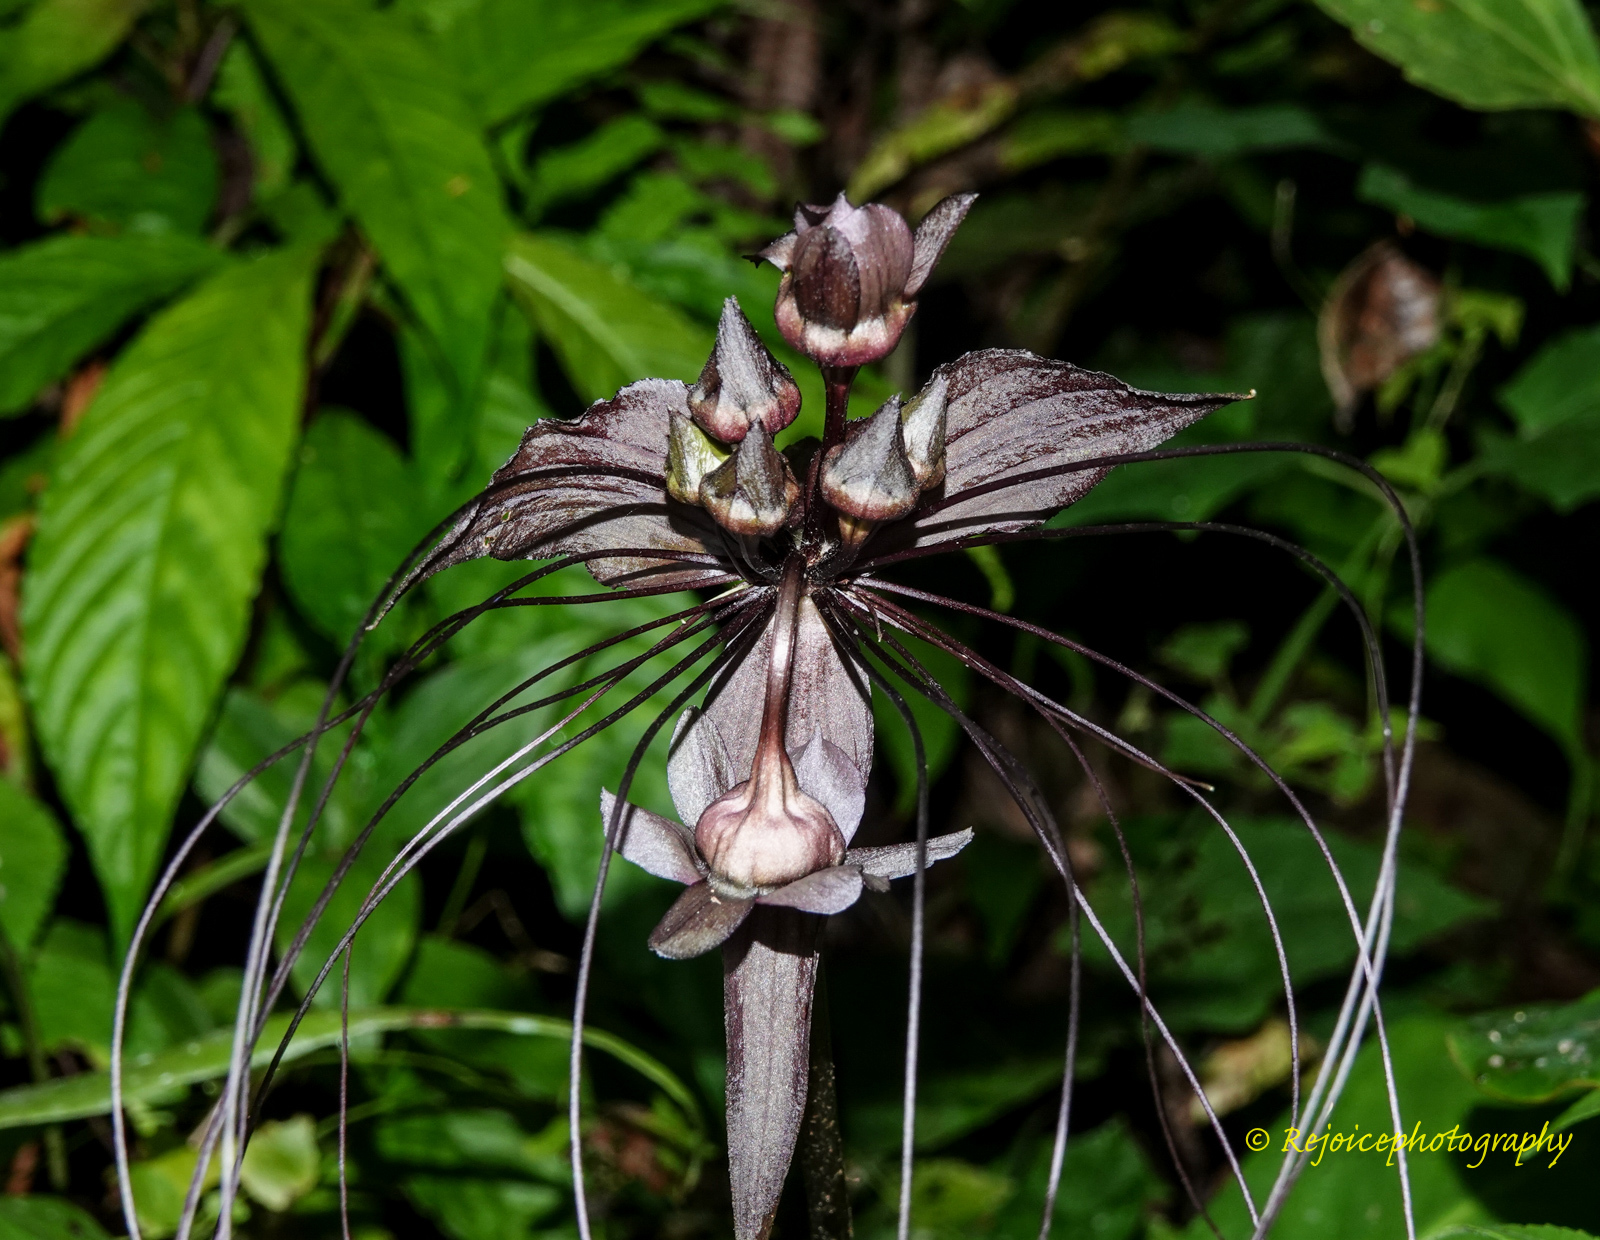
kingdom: Plantae
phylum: Tracheophyta
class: Liliopsida
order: Dioscoreales
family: Dioscoreaceae
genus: Tacca
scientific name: Tacca chantrieri
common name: Cat's-whiskers
